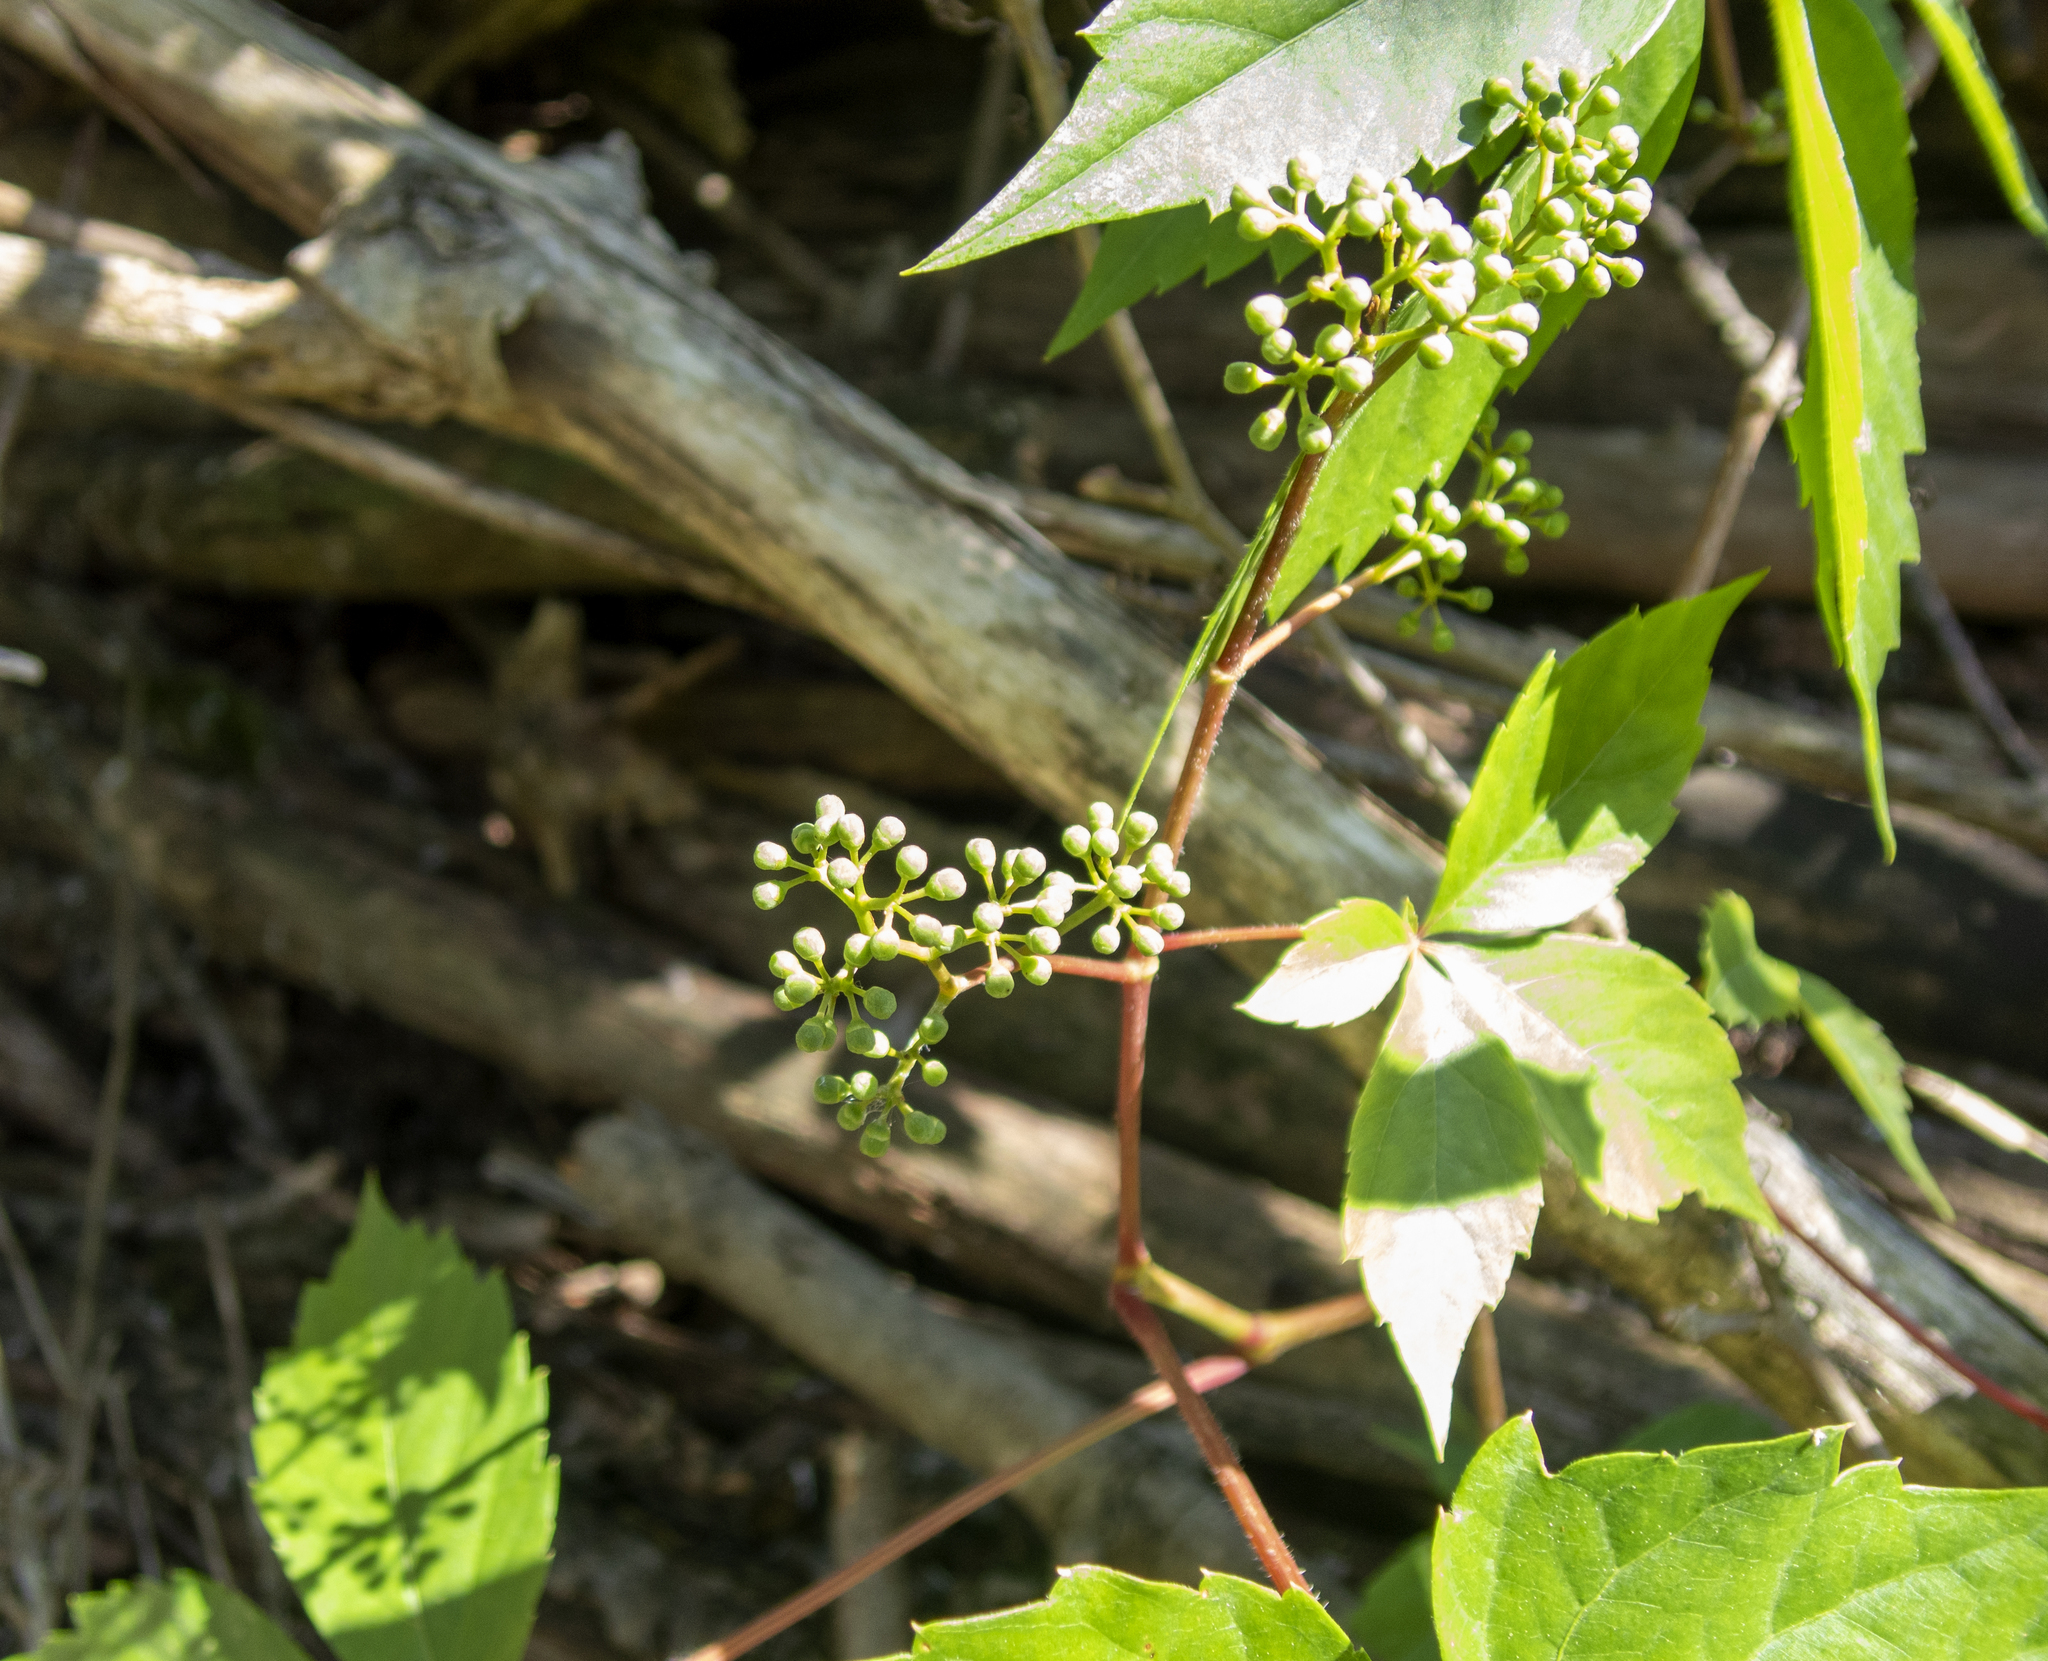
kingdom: Plantae
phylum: Tracheophyta
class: Magnoliopsida
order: Vitales
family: Vitaceae
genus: Parthenocissus
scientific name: Parthenocissus quinquefolia
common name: Virginia-creeper
